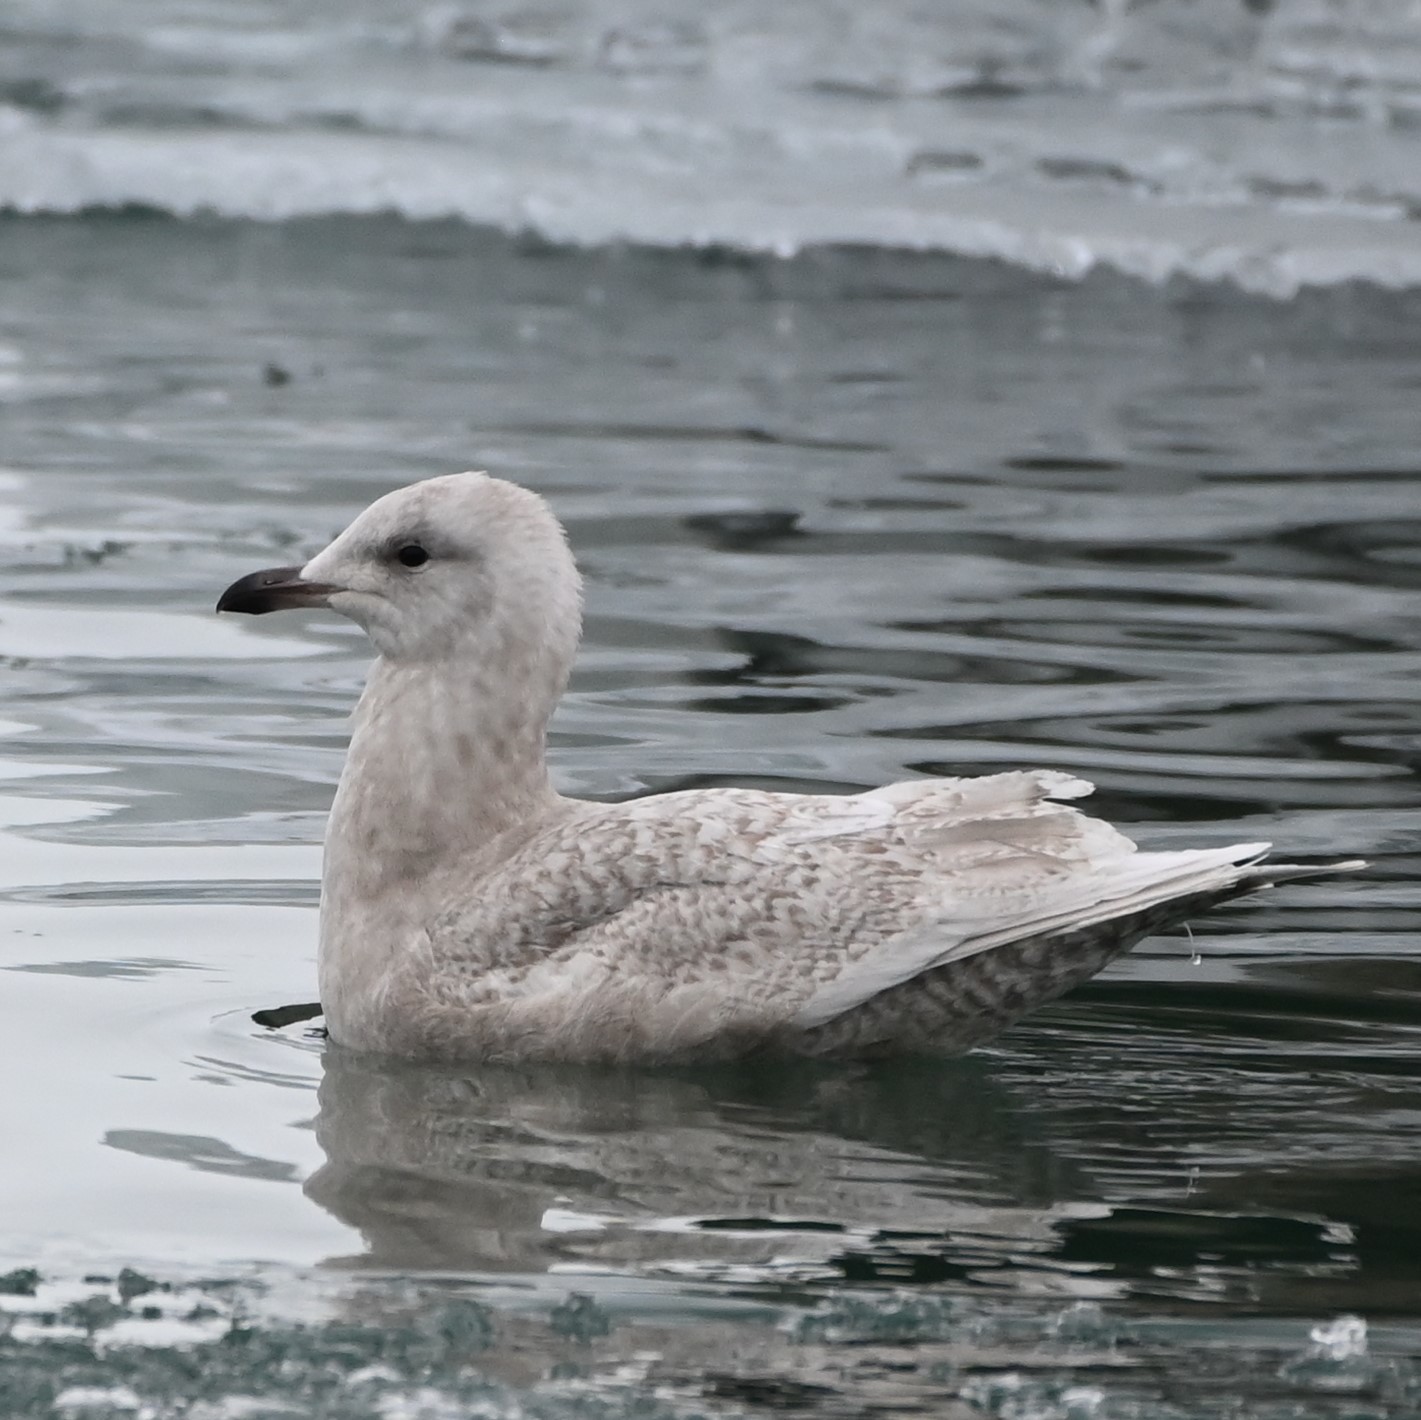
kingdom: Animalia
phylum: Chordata
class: Aves
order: Charadriiformes
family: Laridae
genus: Larus
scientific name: Larus glaucoides
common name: Iceland gull
